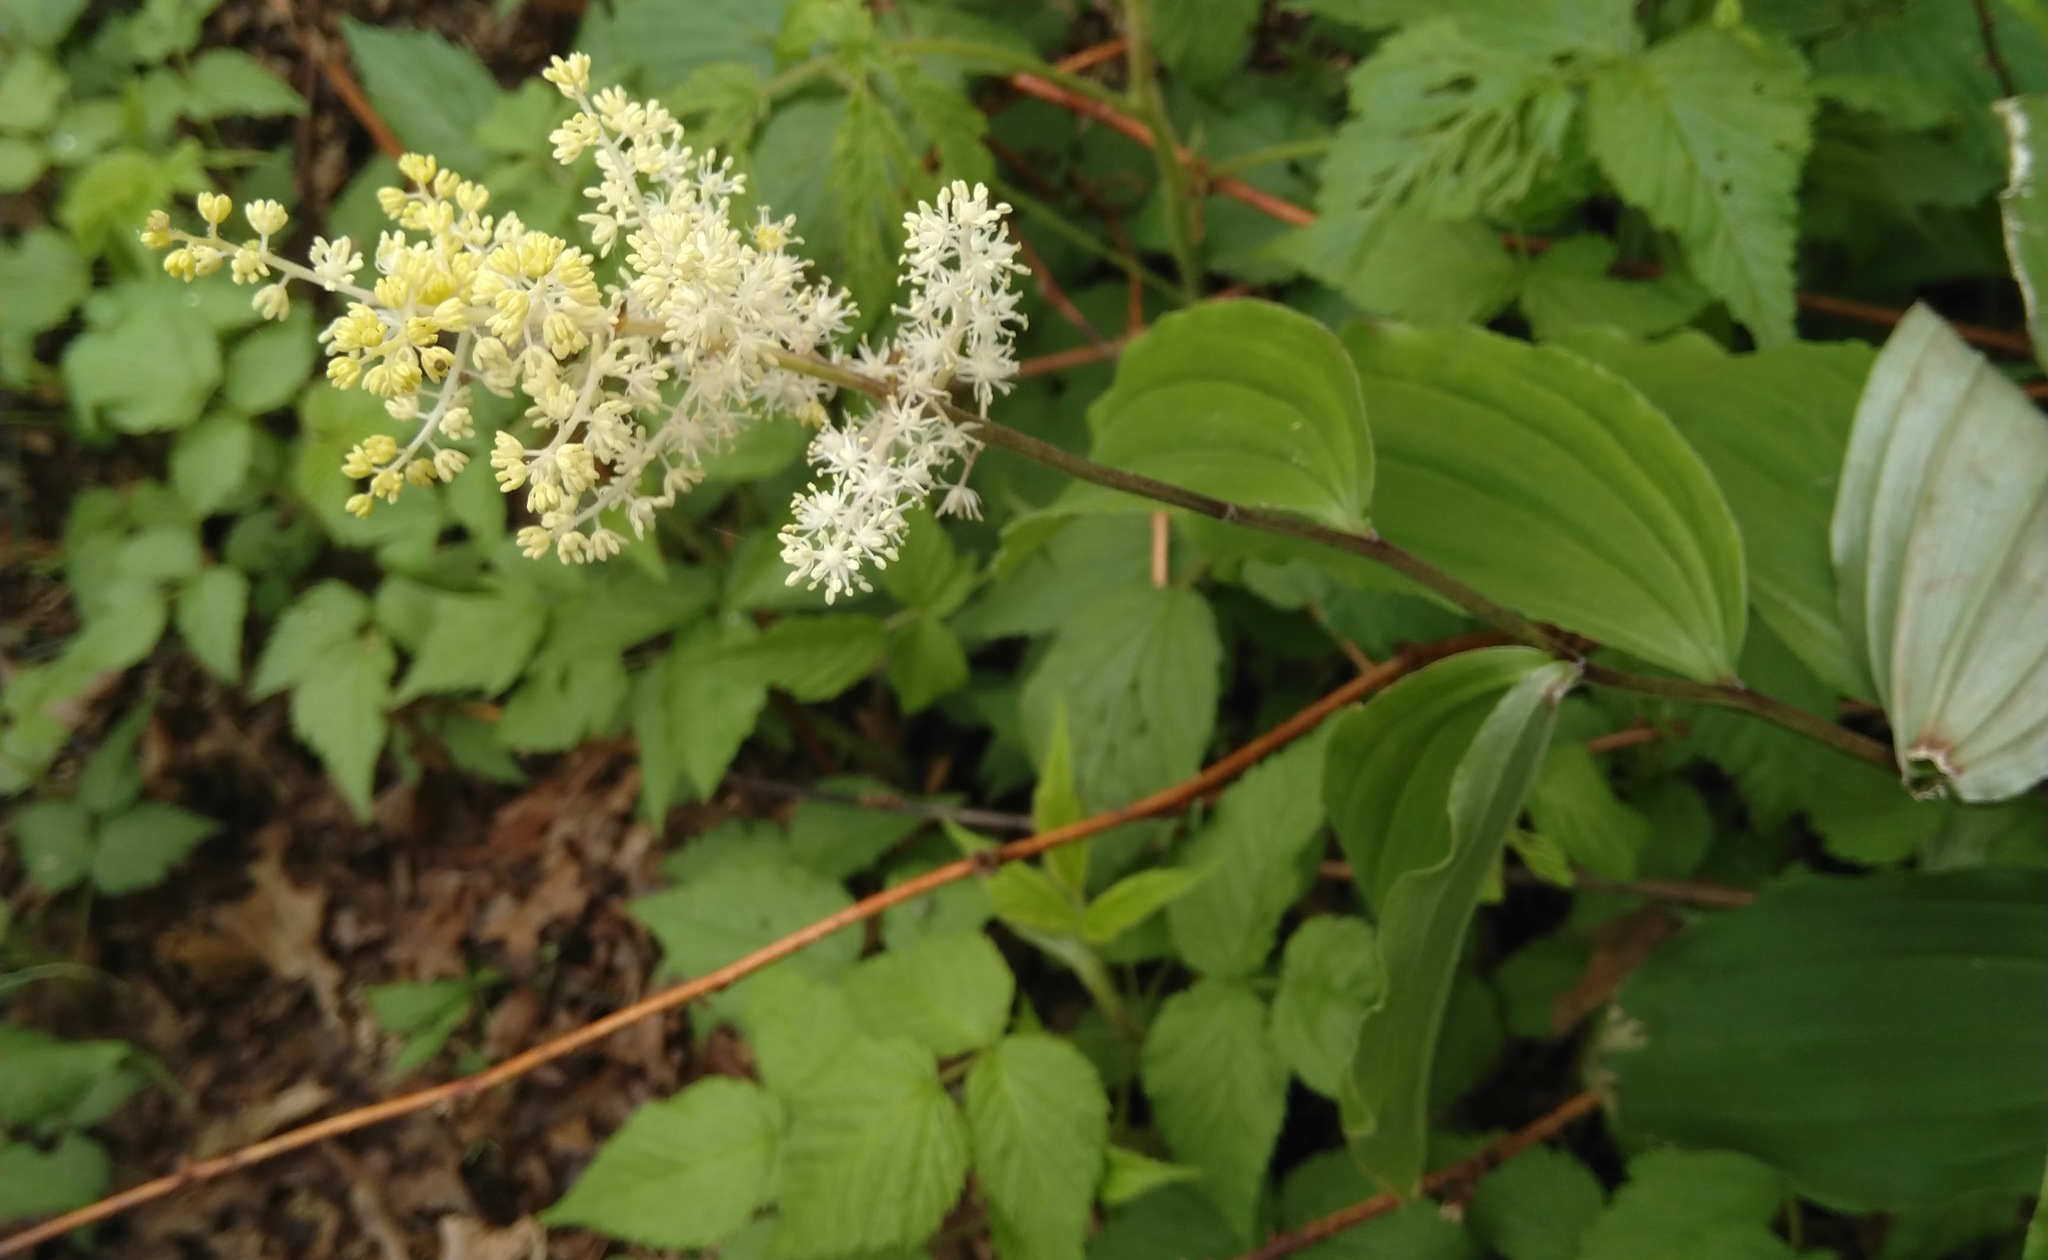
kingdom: Plantae
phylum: Tracheophyta
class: Liliopsida
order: Asparagales
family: Asparagaceae
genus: Maianthemum
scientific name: Maianthemum racemosum
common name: False spikenard
